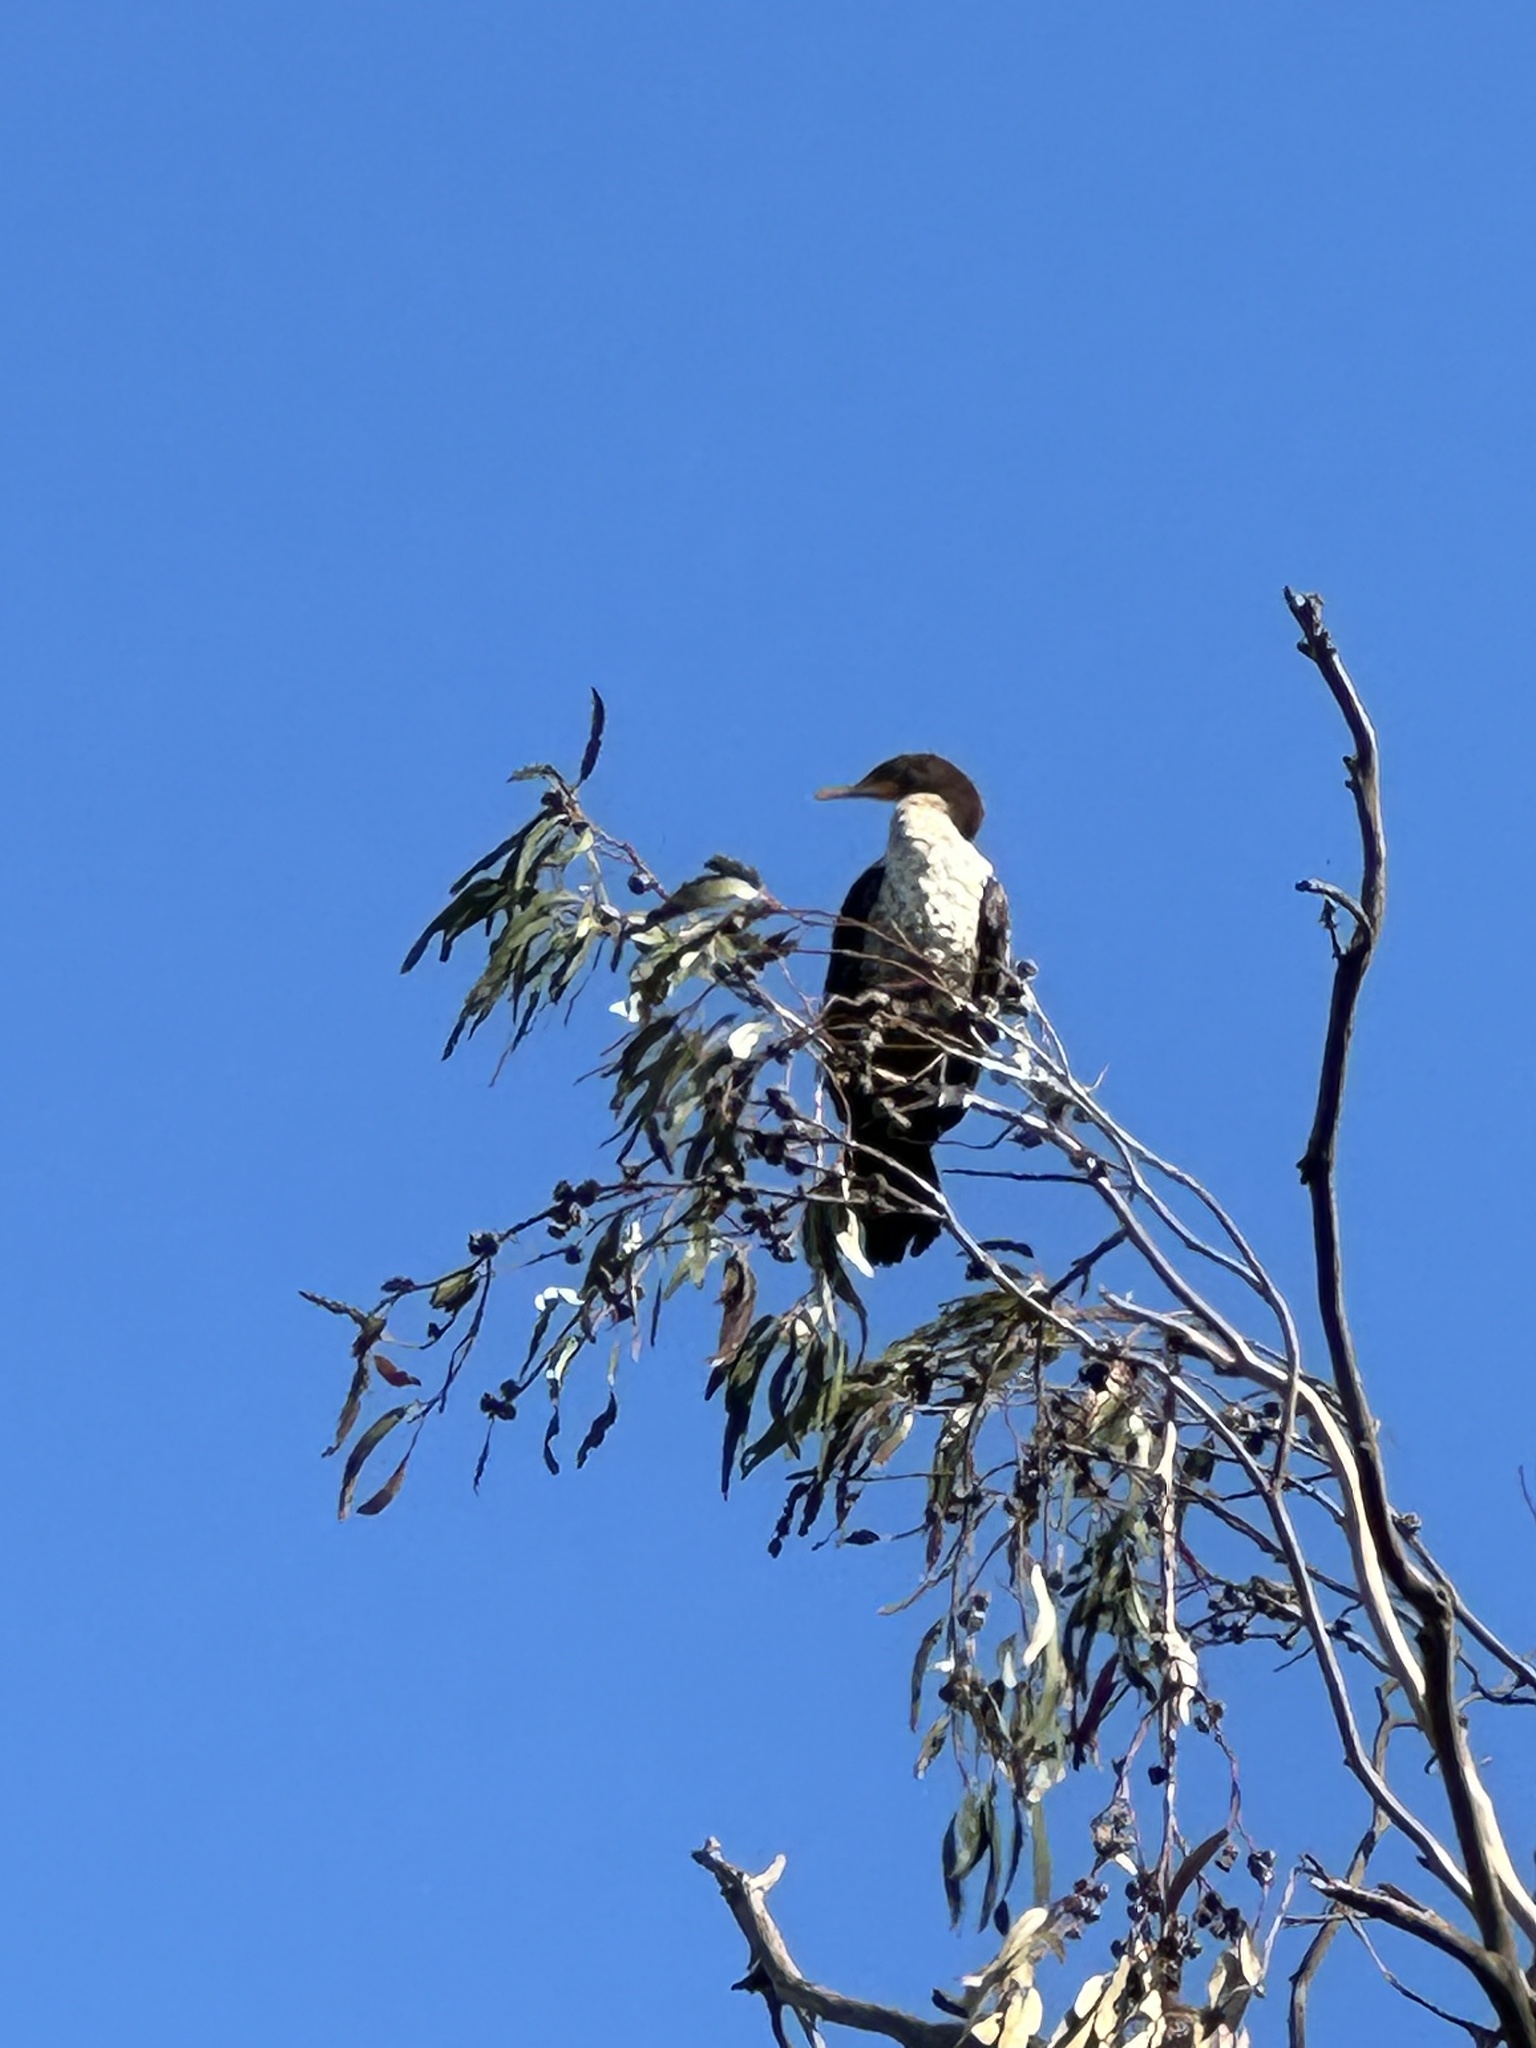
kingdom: Animalia
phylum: Chordata
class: Aves
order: Suliformes
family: Phalacrocoracidae
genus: Phalacrocorax
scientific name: Phalacrocorax auritus
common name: Double-crested cormorant
